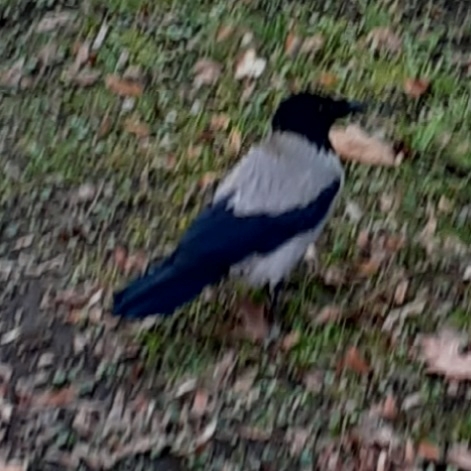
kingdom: Animalia
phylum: Chordata
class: Aves
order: Passeriformes
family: Corvidae
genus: Corvus
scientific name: Corvus cornix
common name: Hooded crow
